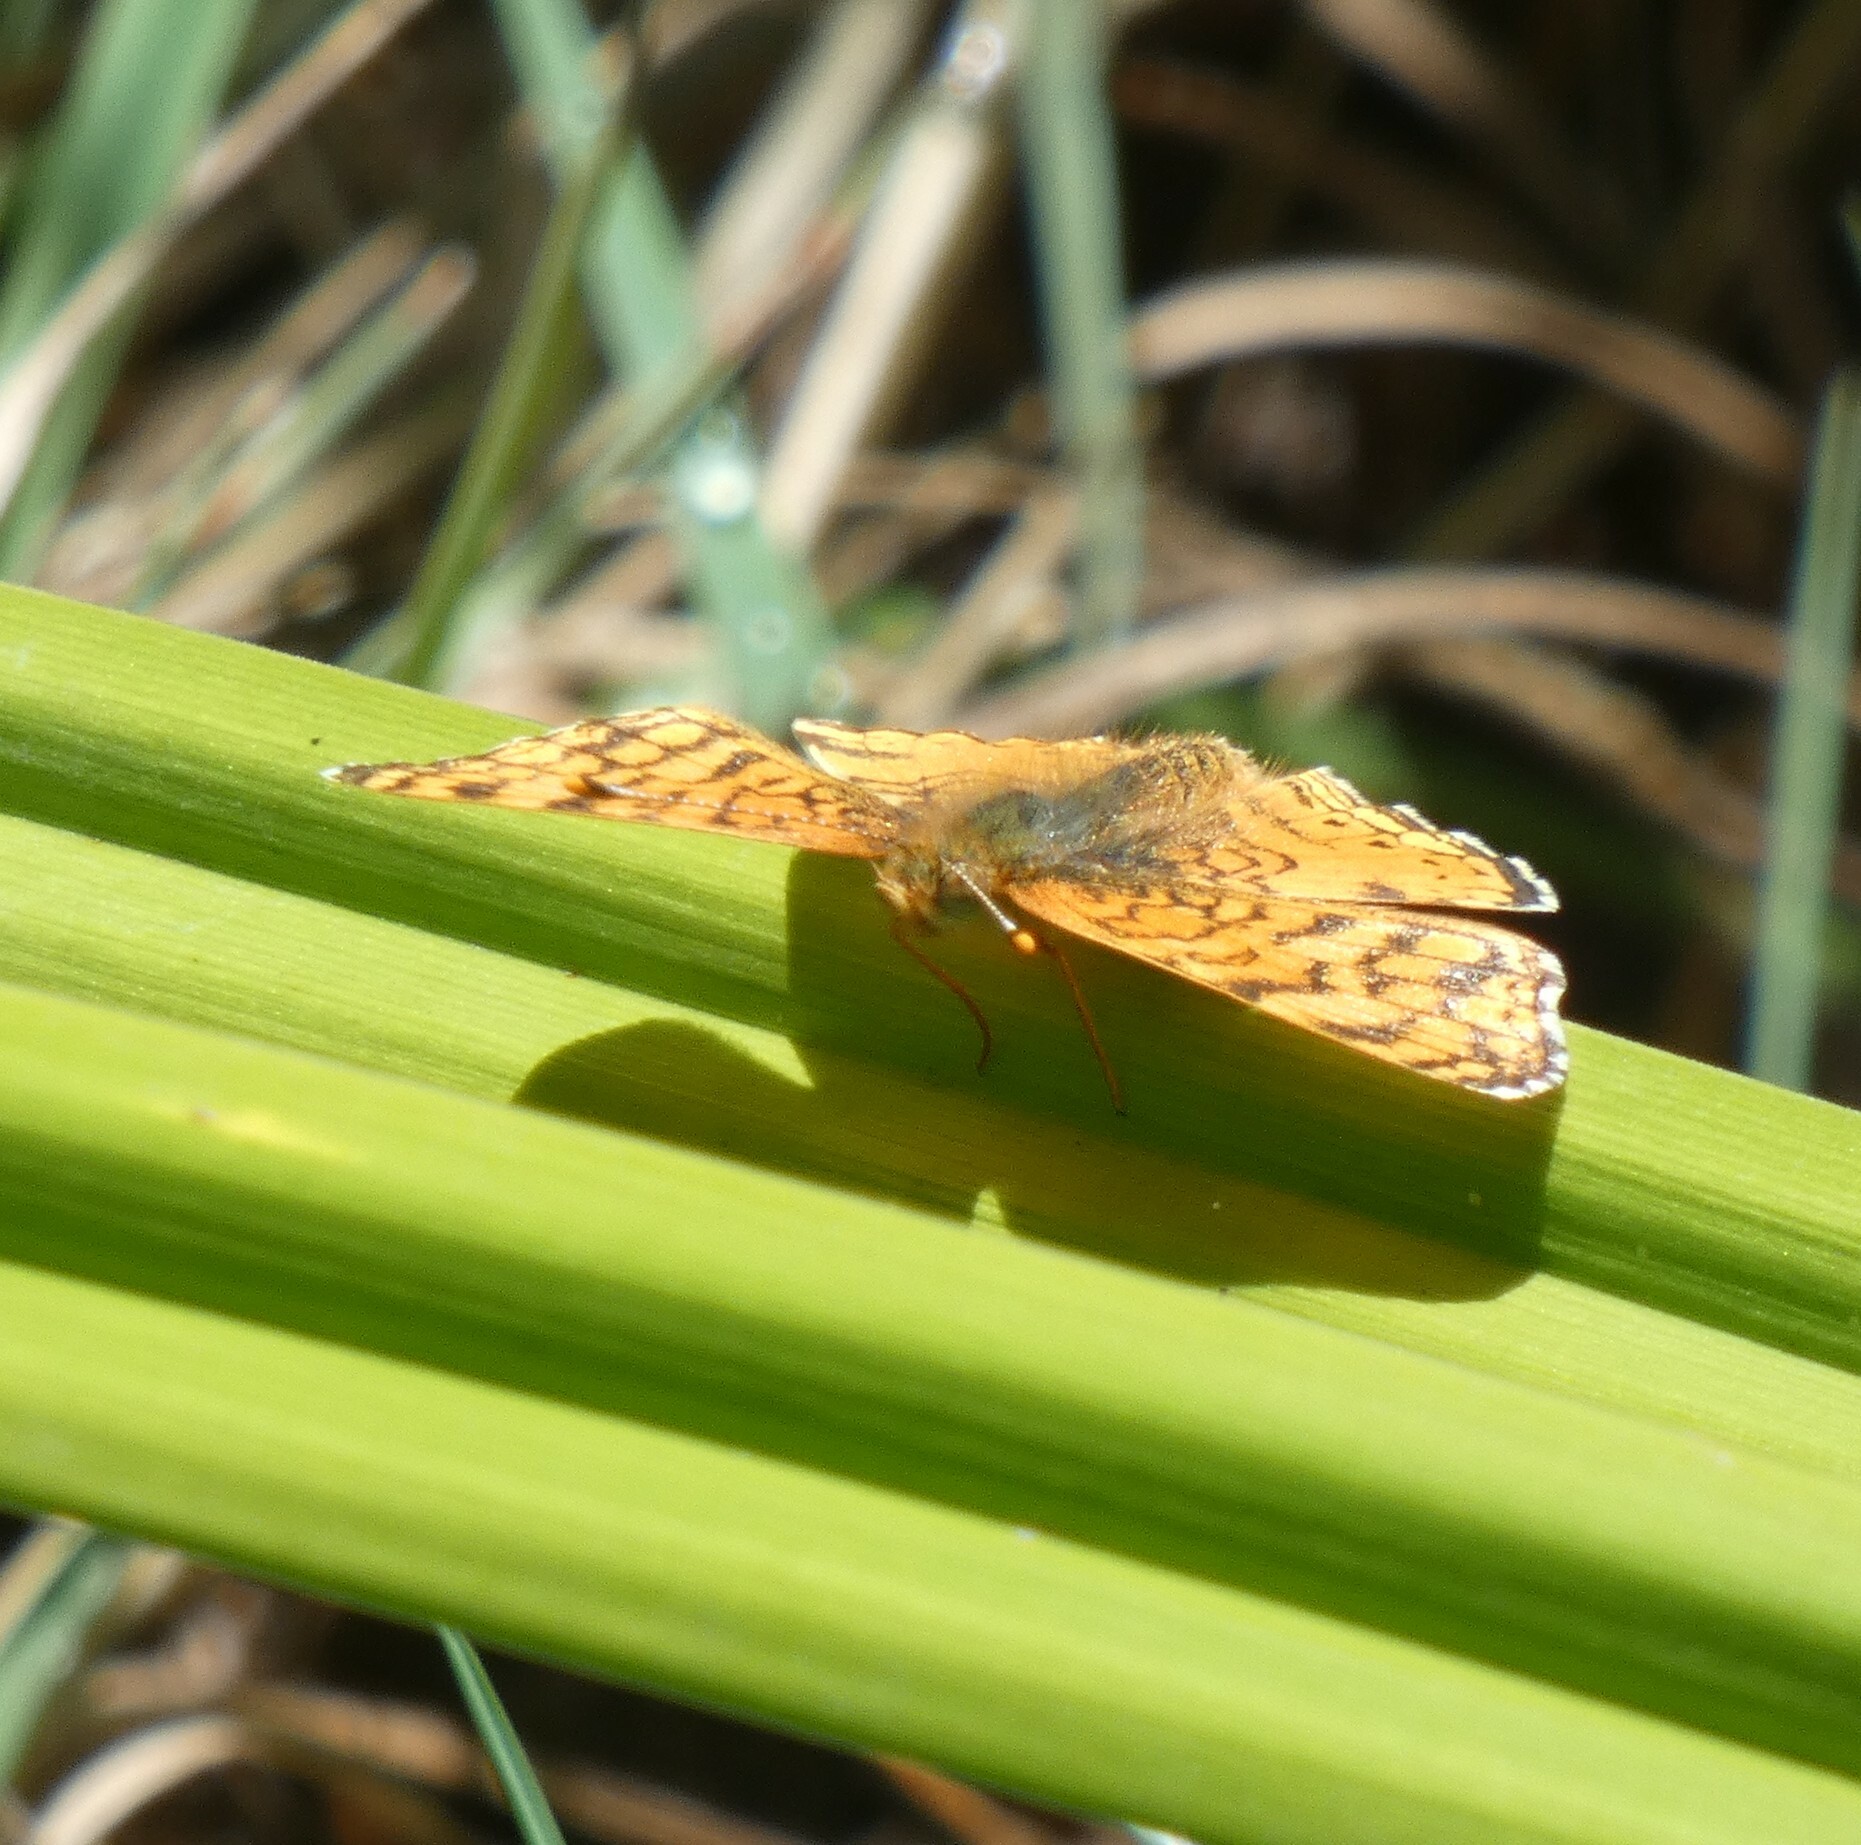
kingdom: Animalia
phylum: Arthropoda
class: Insecta
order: Lepidoptera
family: Nymphalidae
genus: Eresia
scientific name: Eresia aveyrona
